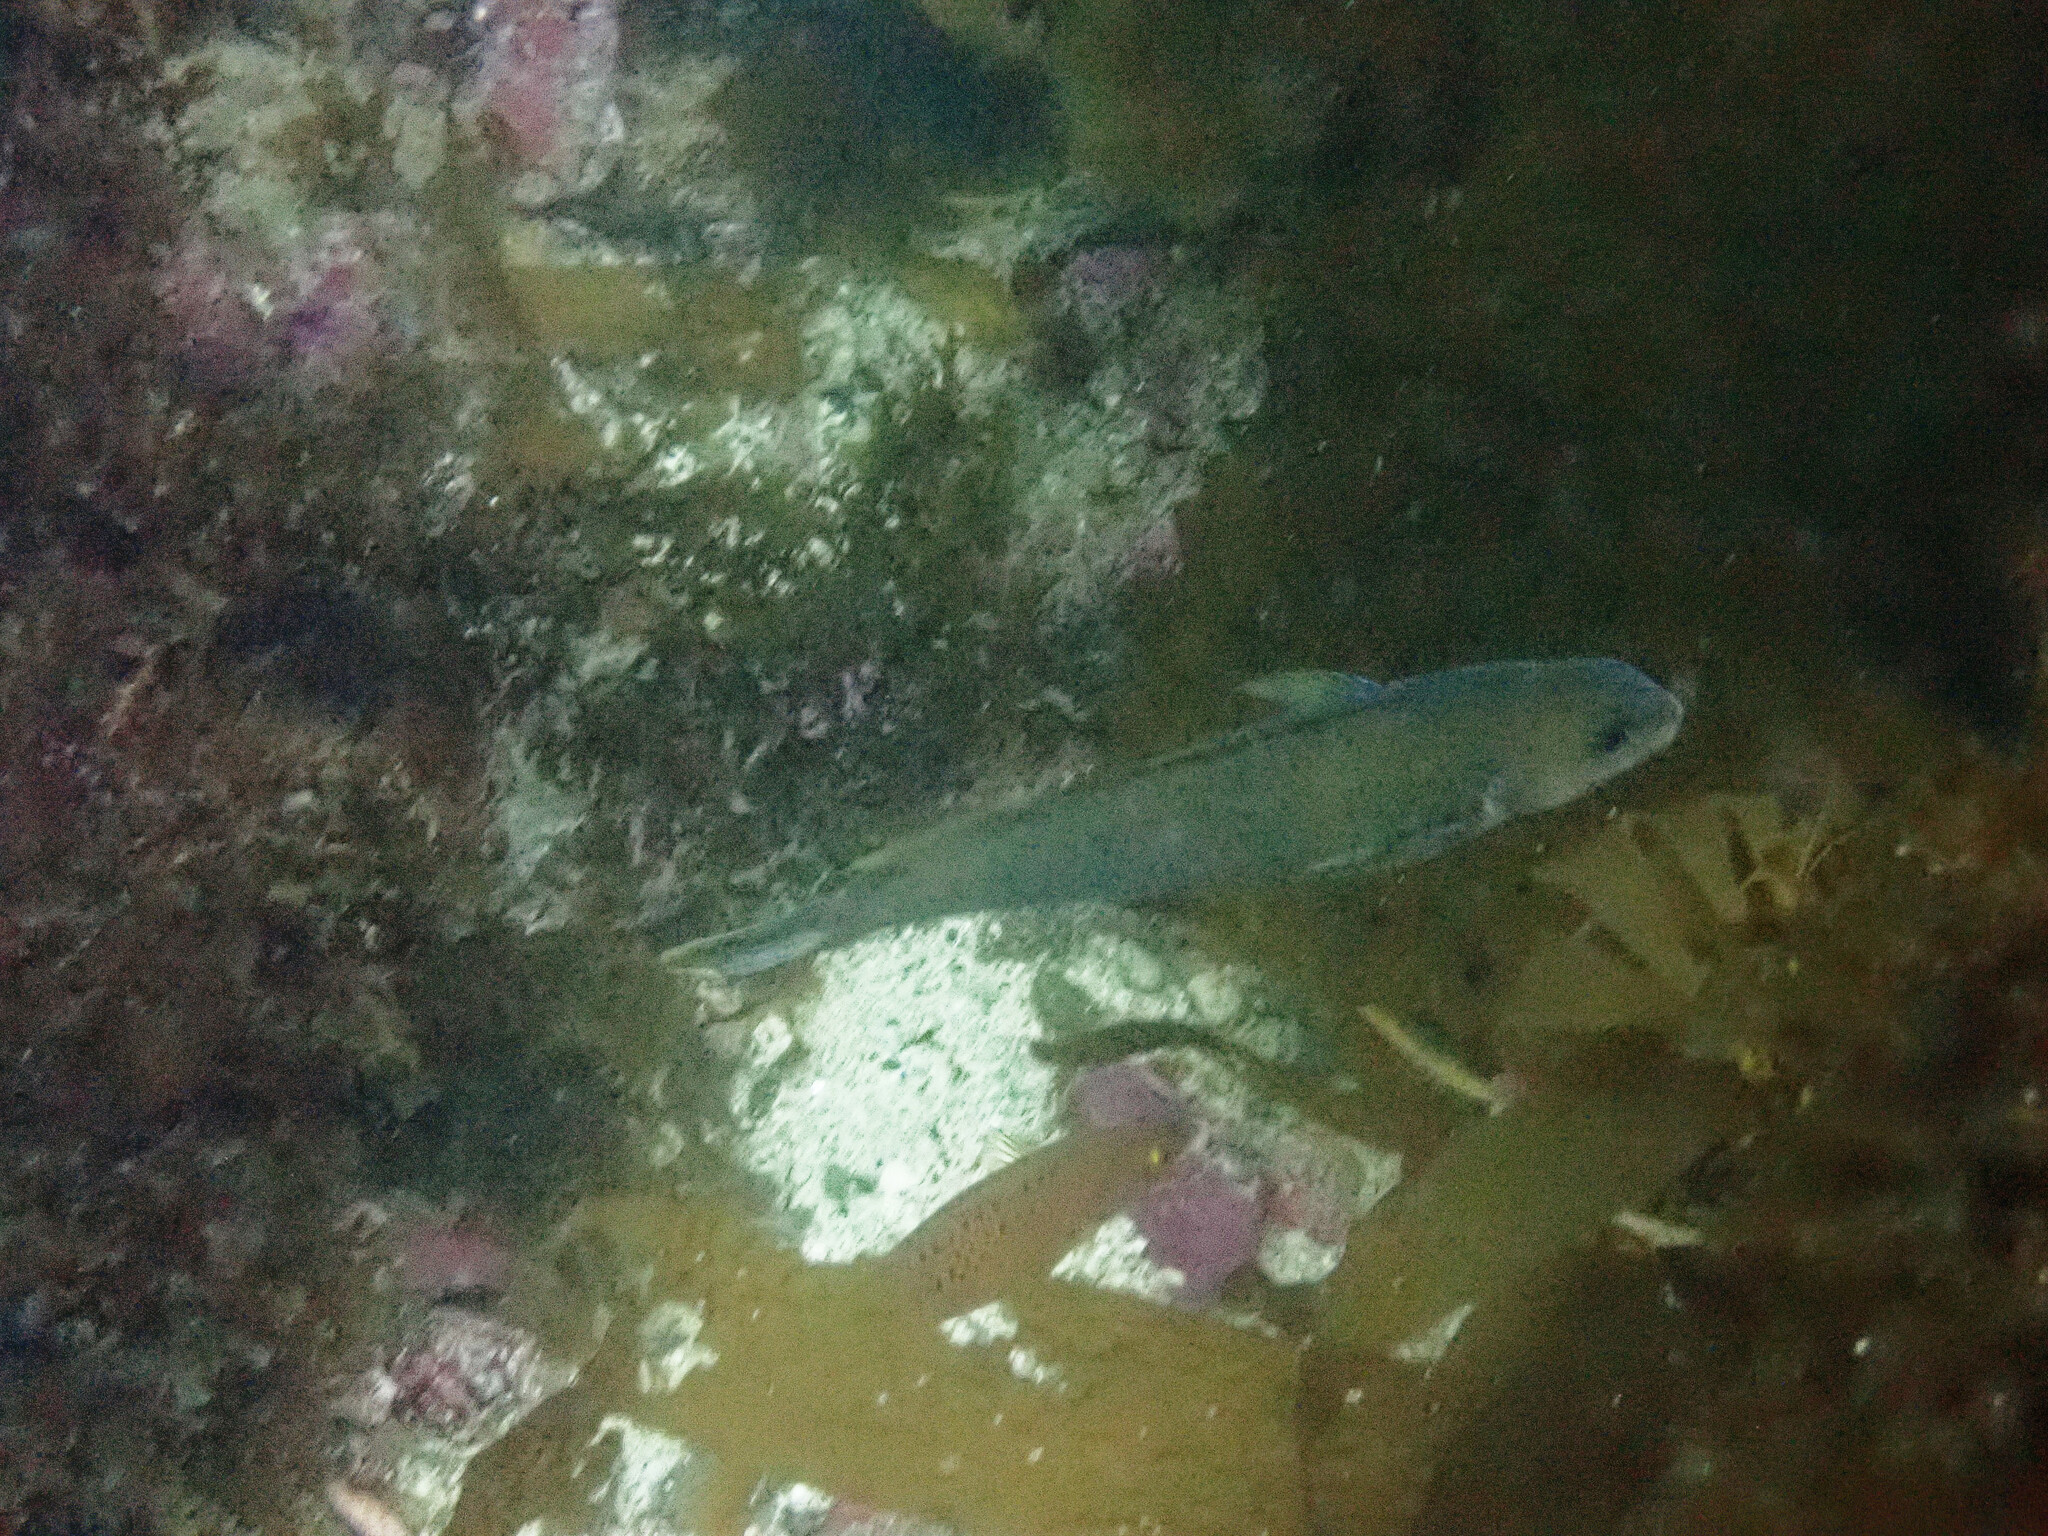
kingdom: Animalia
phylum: Chordata
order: Perciformes
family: Malacanthidae
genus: Caulolatilus
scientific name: Caulolatilus princeps
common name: Ocean whitefish
